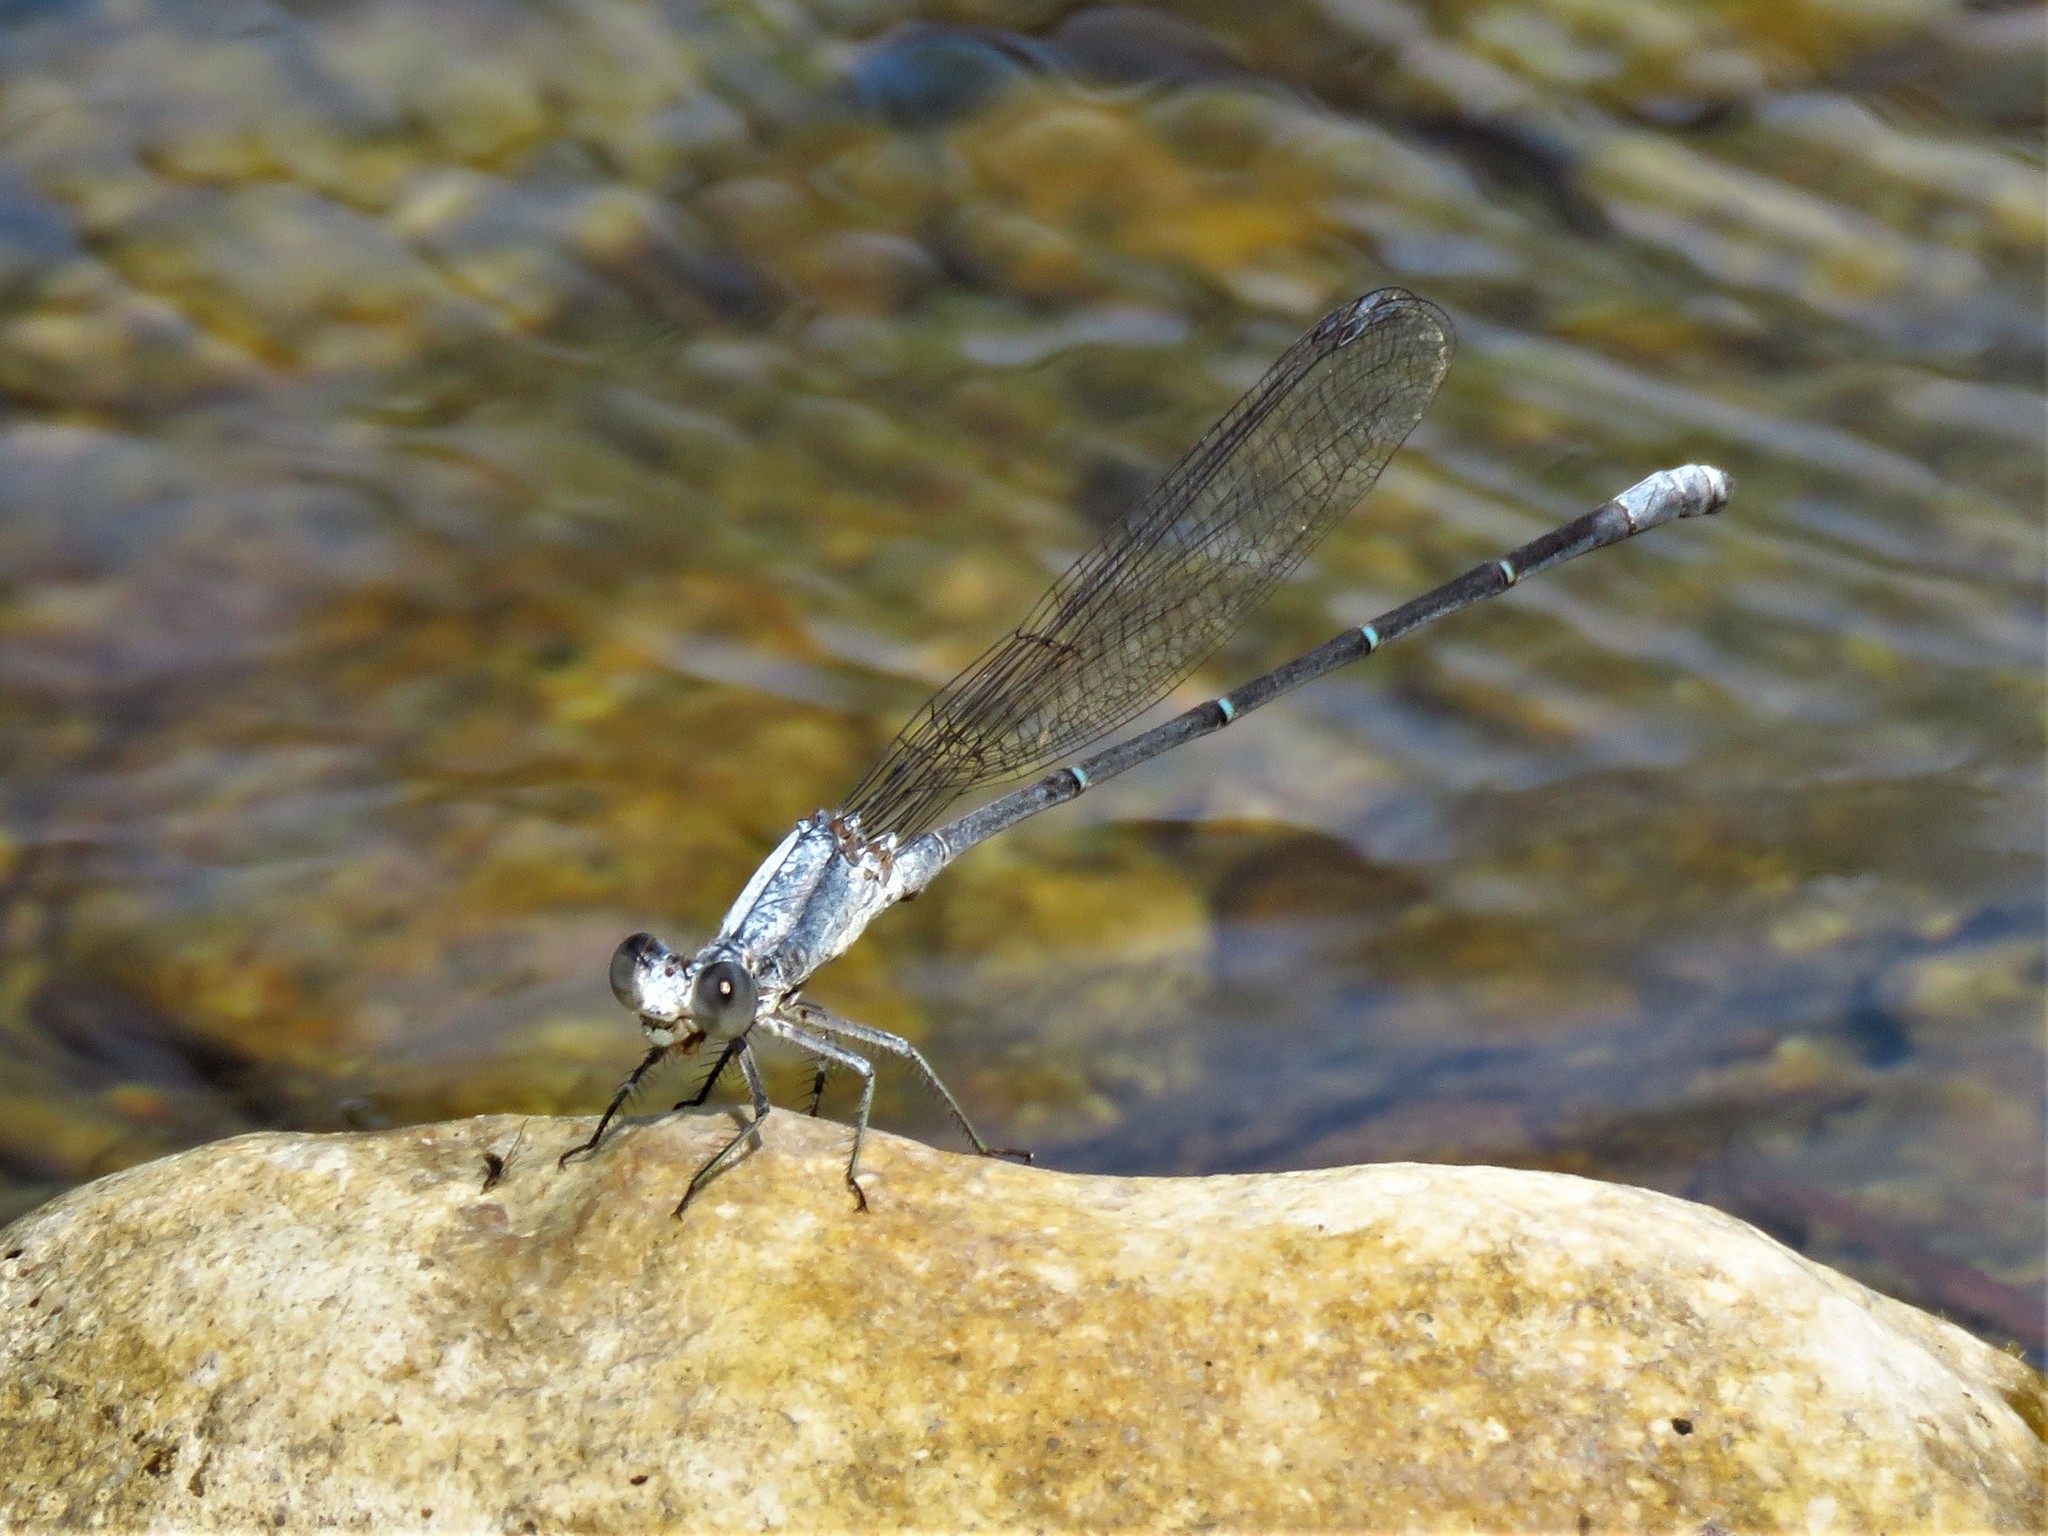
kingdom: Animalia
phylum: Arthropoda
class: Insecta
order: Odonata
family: Coenagrionidae
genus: Argia
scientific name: Argia moesta
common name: Powdered dancer
